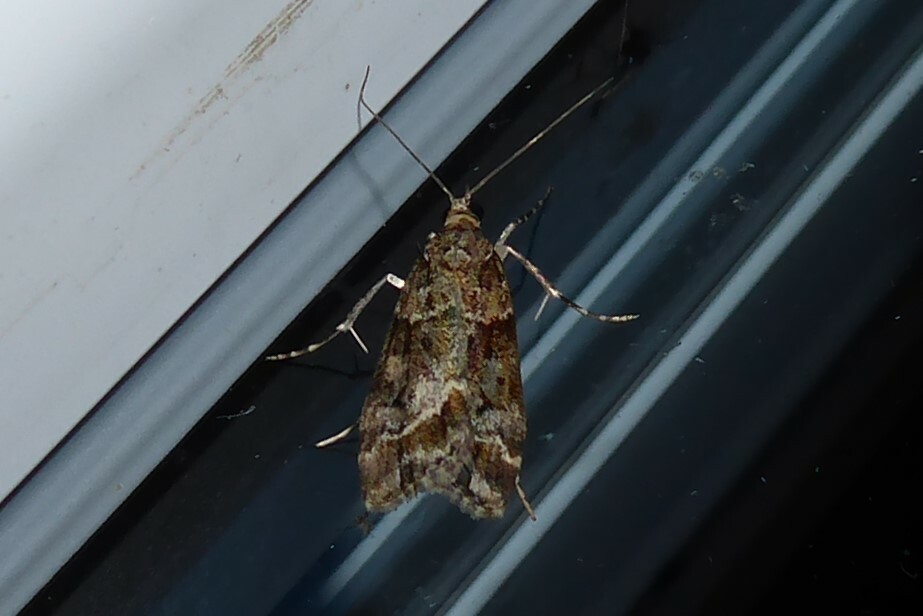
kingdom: Animalia
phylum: Arthropoda
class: Insecta
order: Lepidoptera
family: Crambidae
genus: Eudonia
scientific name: Eudonia legnota
